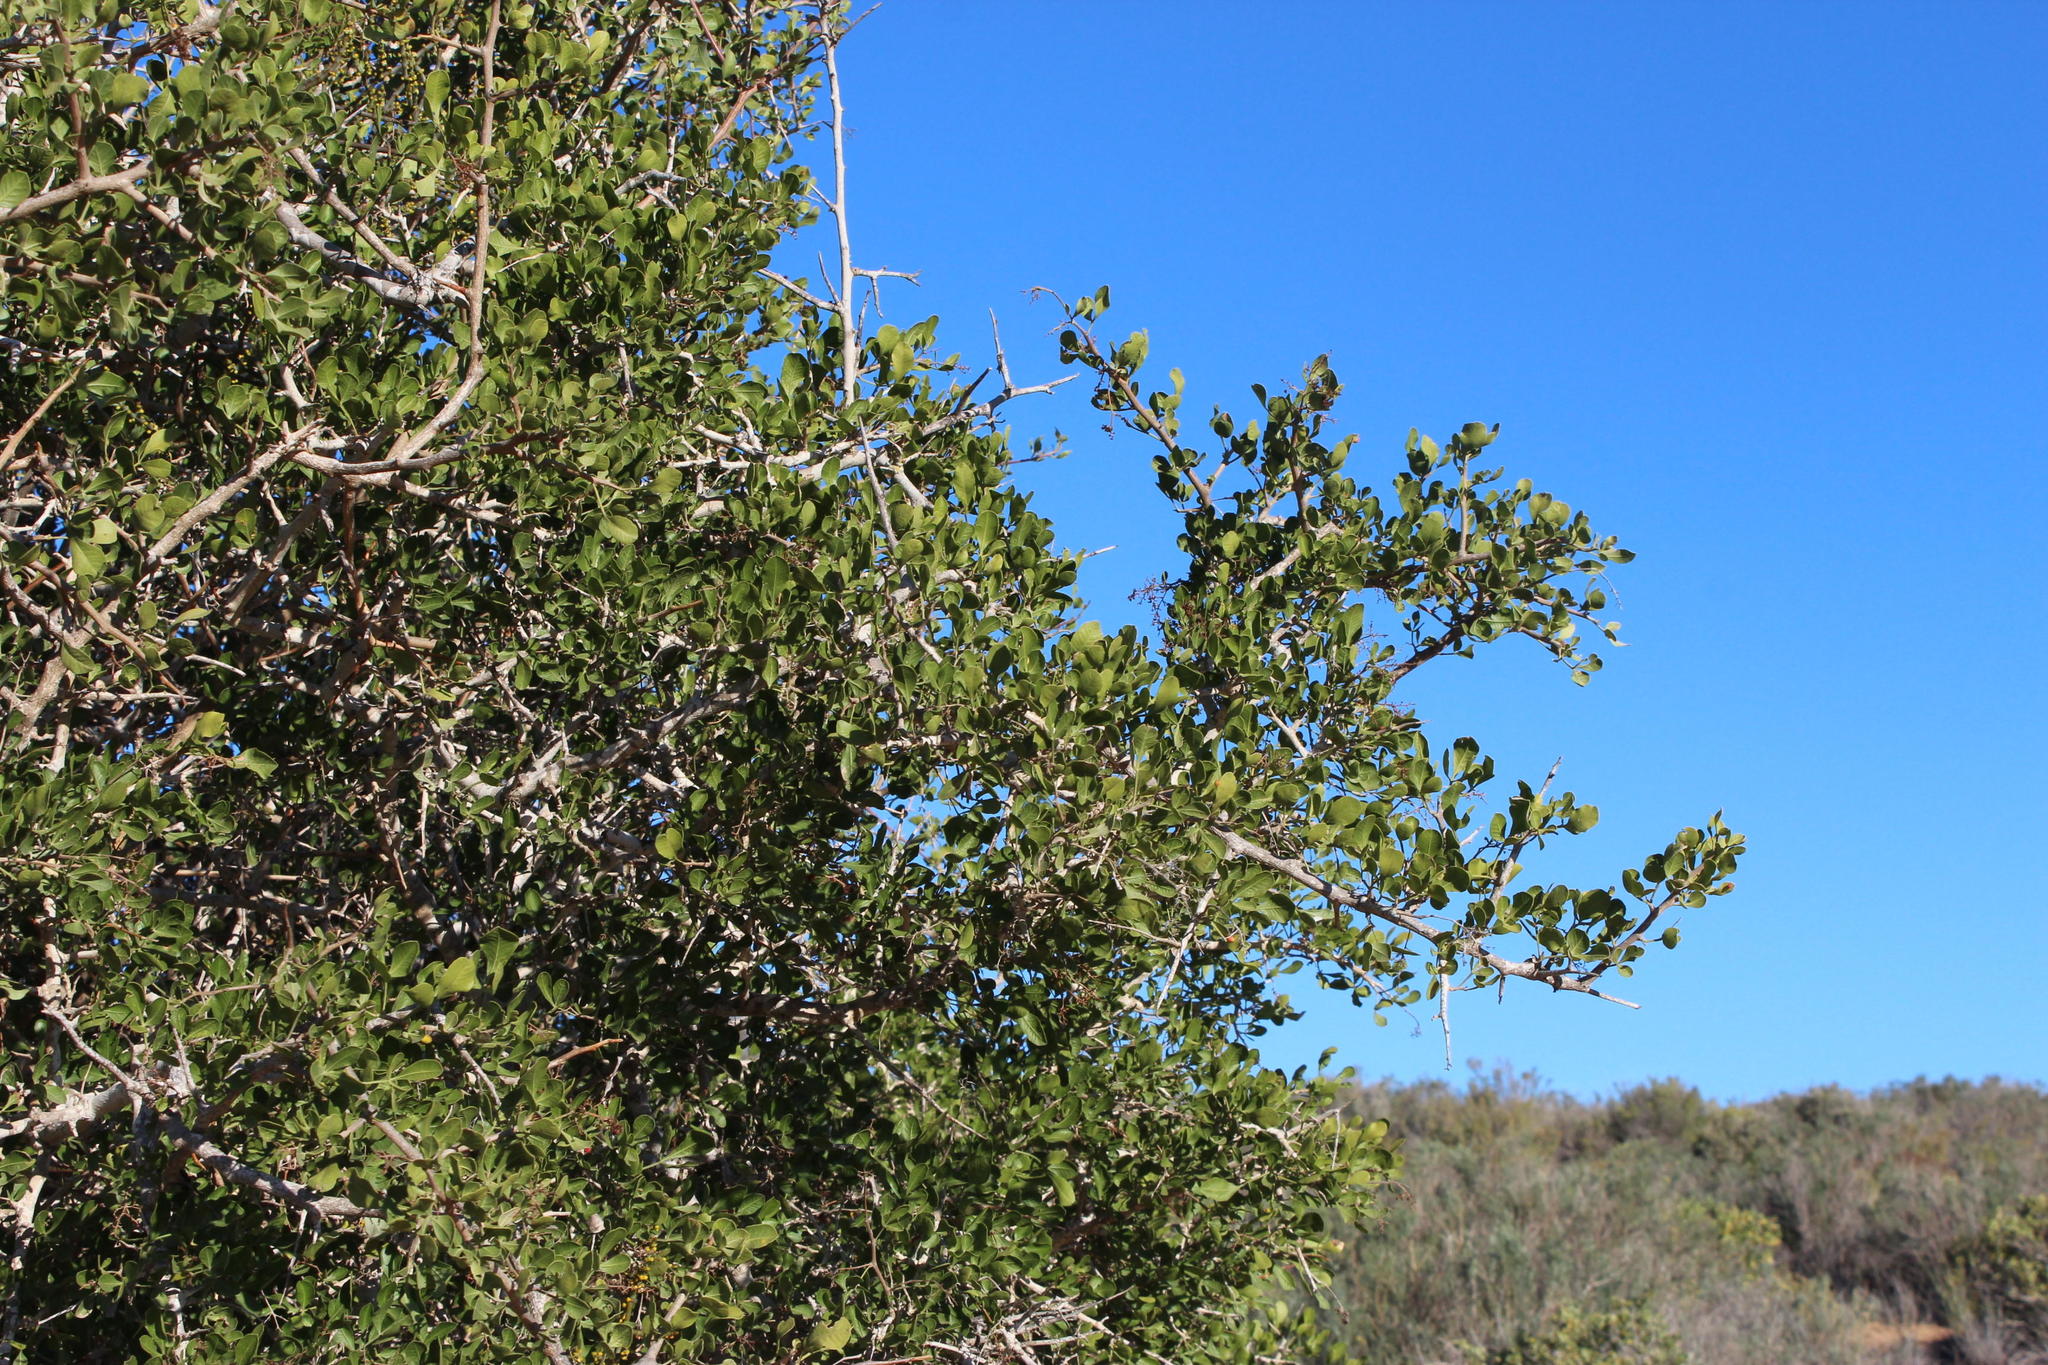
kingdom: Plantae
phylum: Tracheophyta
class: Magnoliopsida
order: Sapindales
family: Anacardiaceae
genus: Searsia
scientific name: Searsia undulata
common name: Namaqua kunibush
